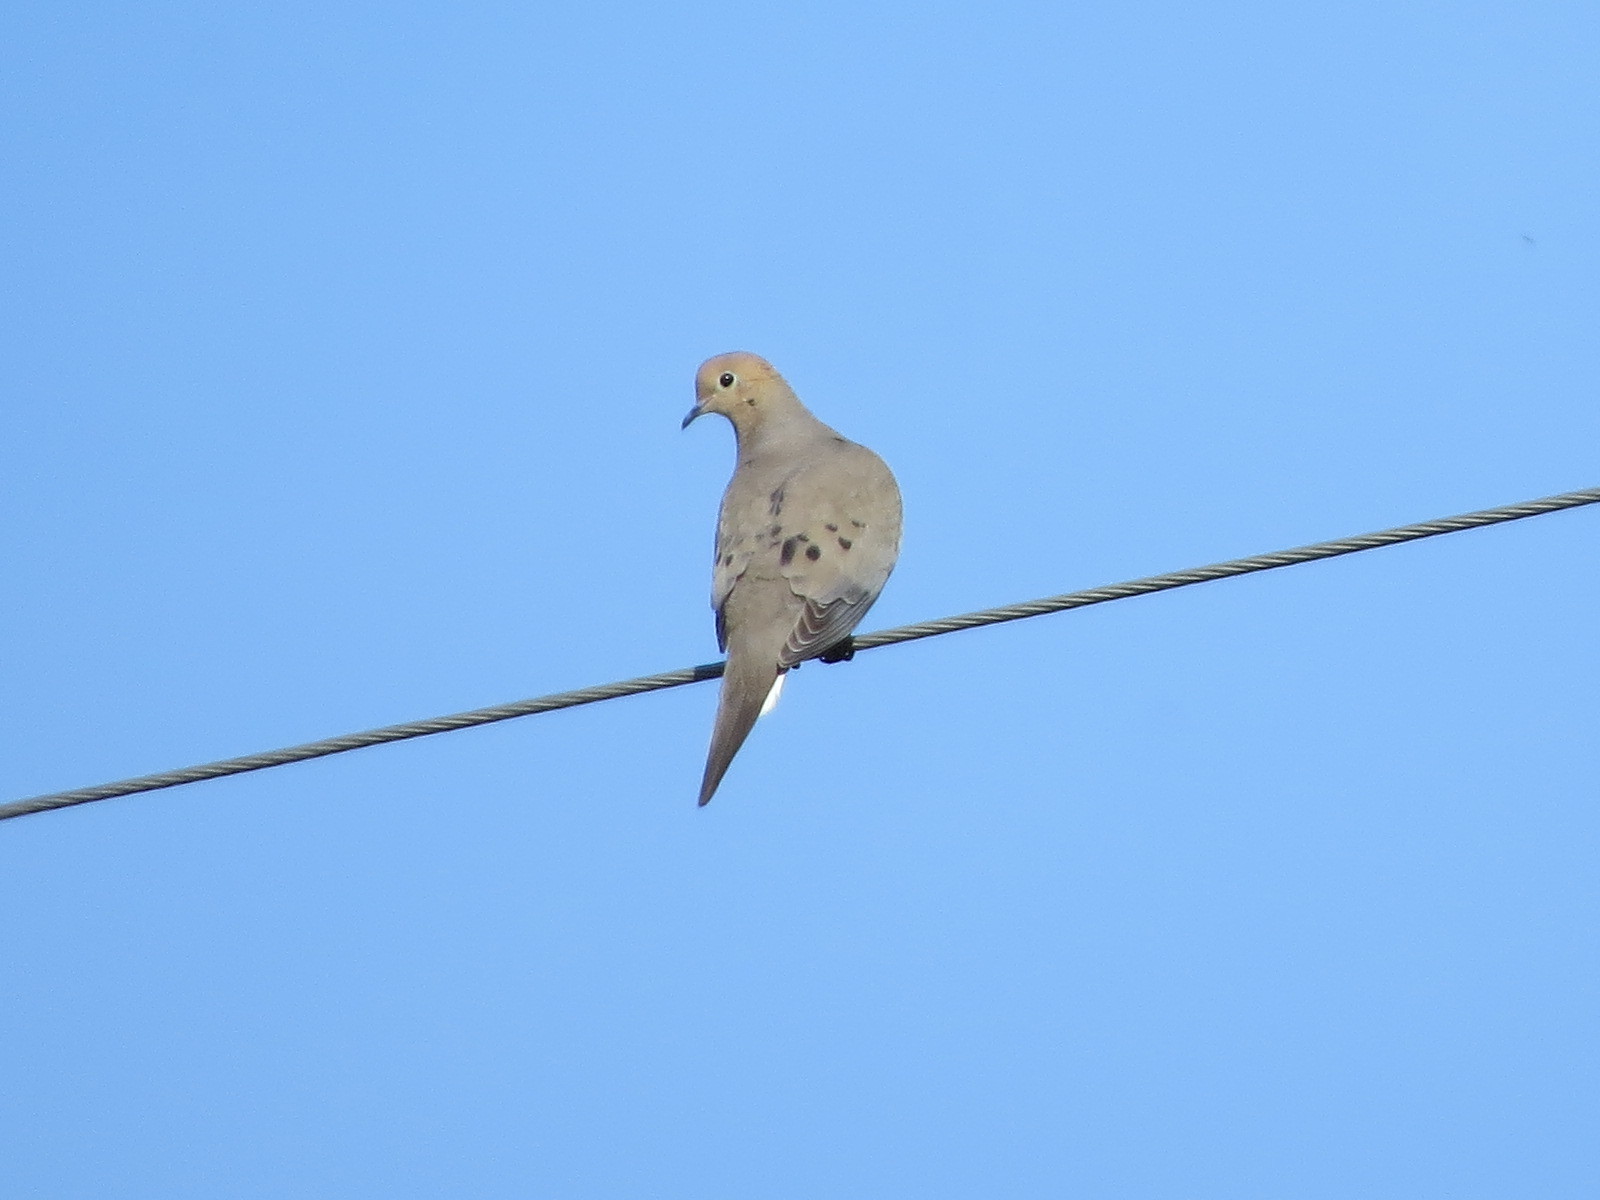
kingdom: Animalia
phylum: Chordata
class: Aves
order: Columbiformes
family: Columbidae
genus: Zenaida
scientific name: Zenaida macroura
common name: Mourning dove
